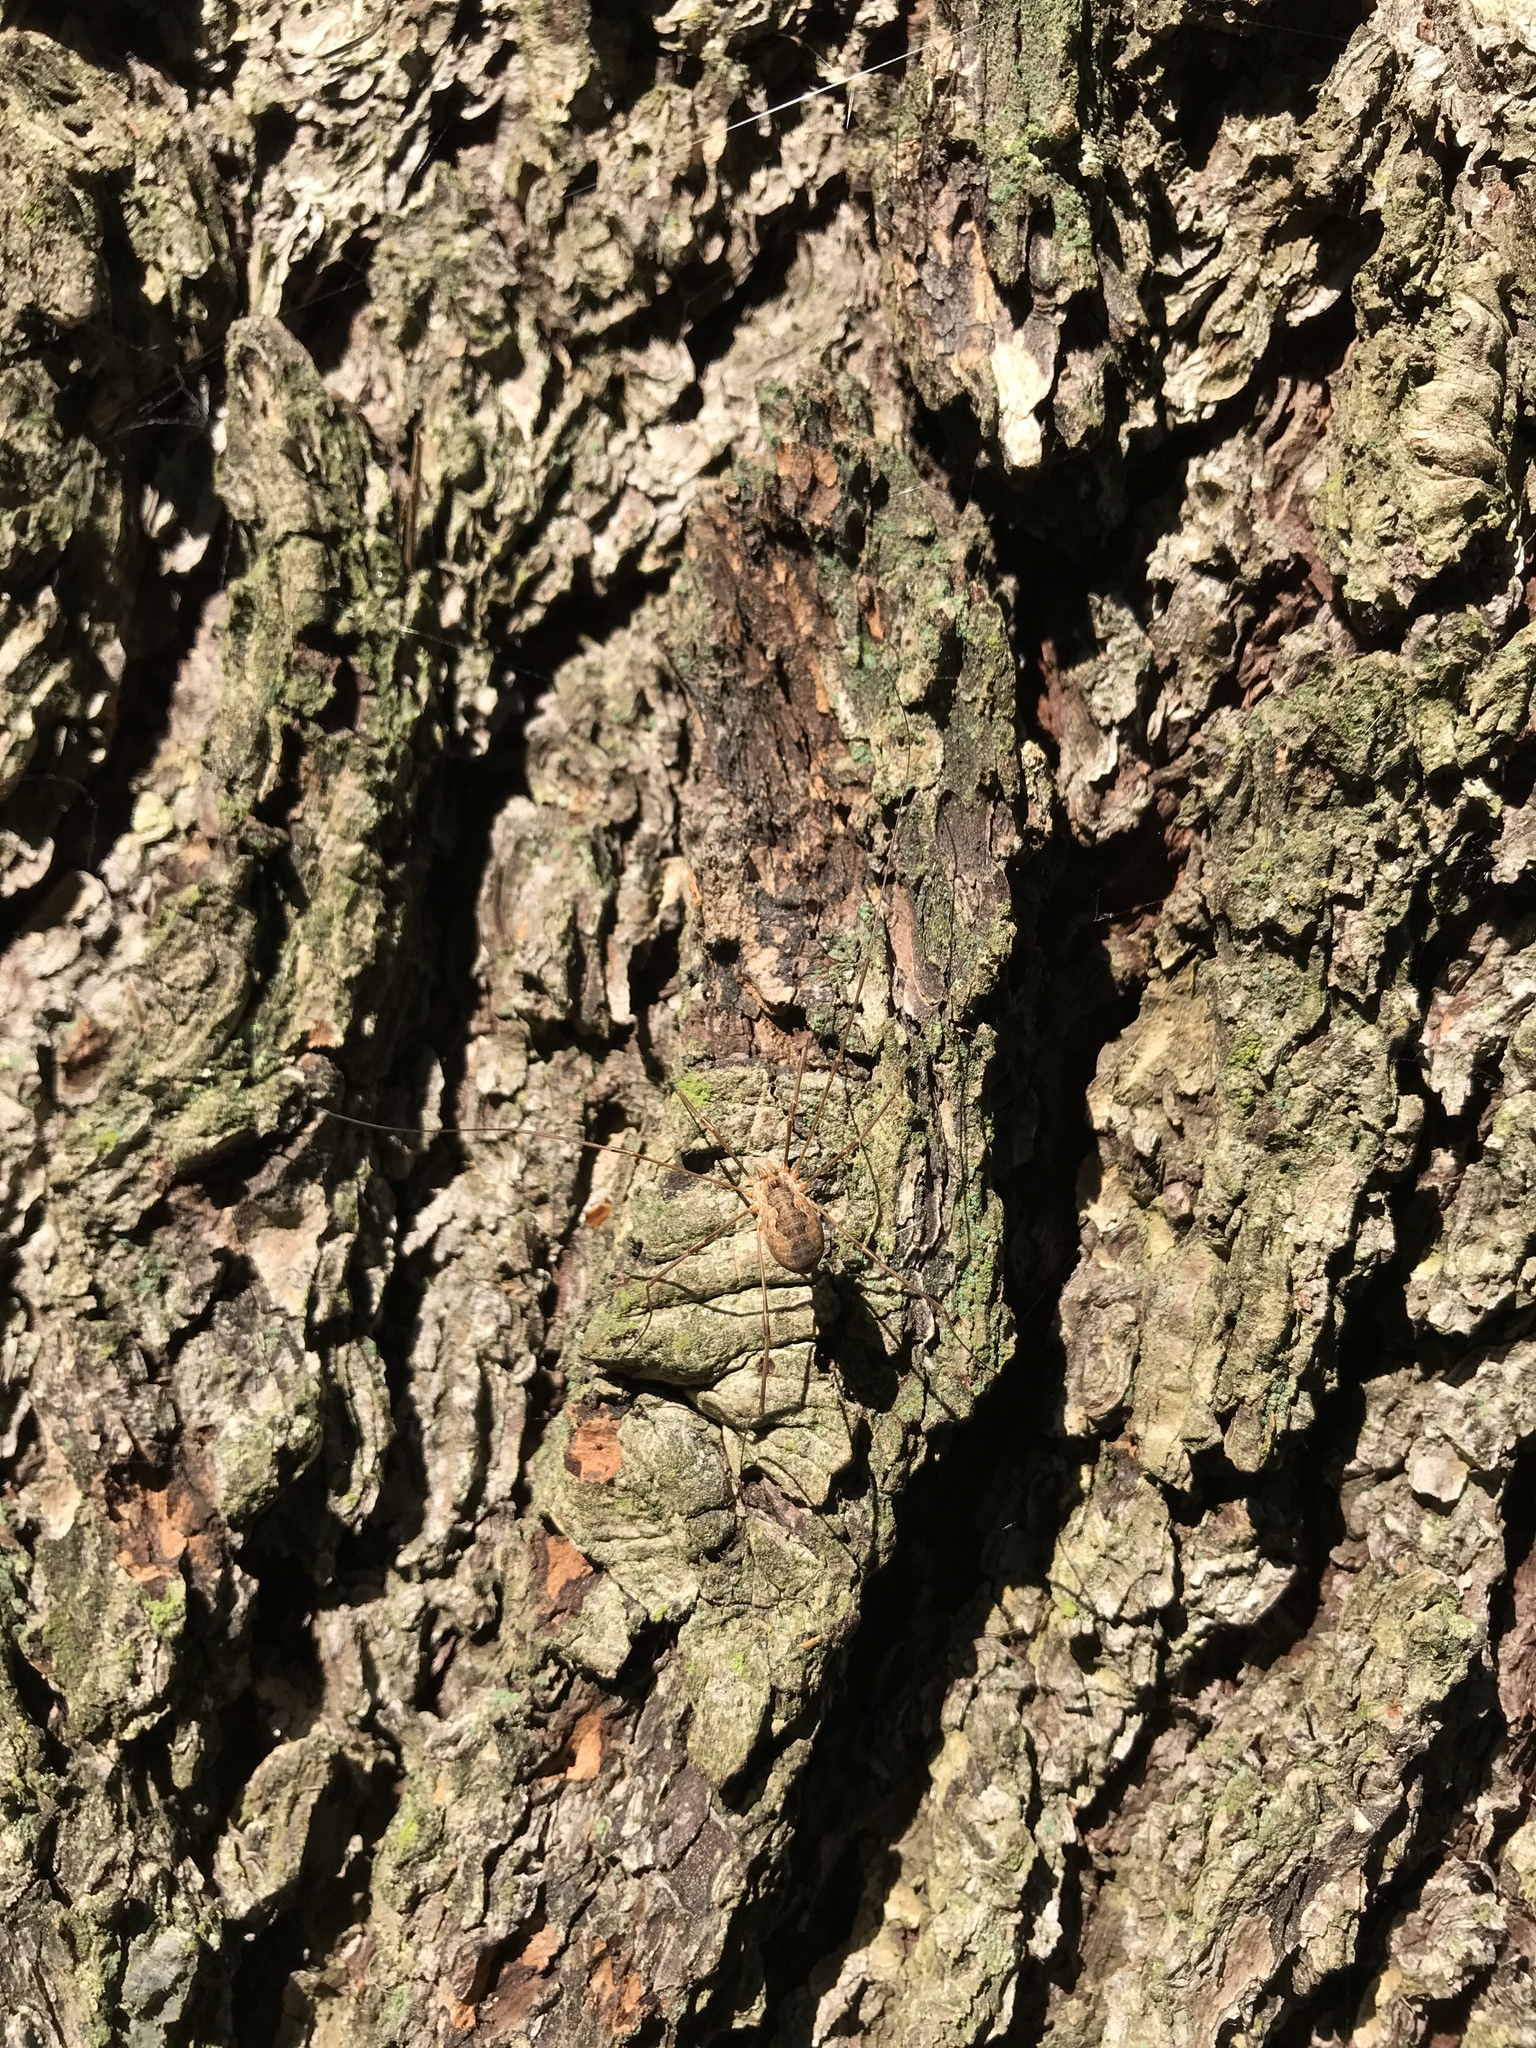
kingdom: Animalia
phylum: Arthropoda
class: Arachnida
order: Opiliones
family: Phalangiidae
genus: Phalangium
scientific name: Phalangium opilio
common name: Daddy longleg
